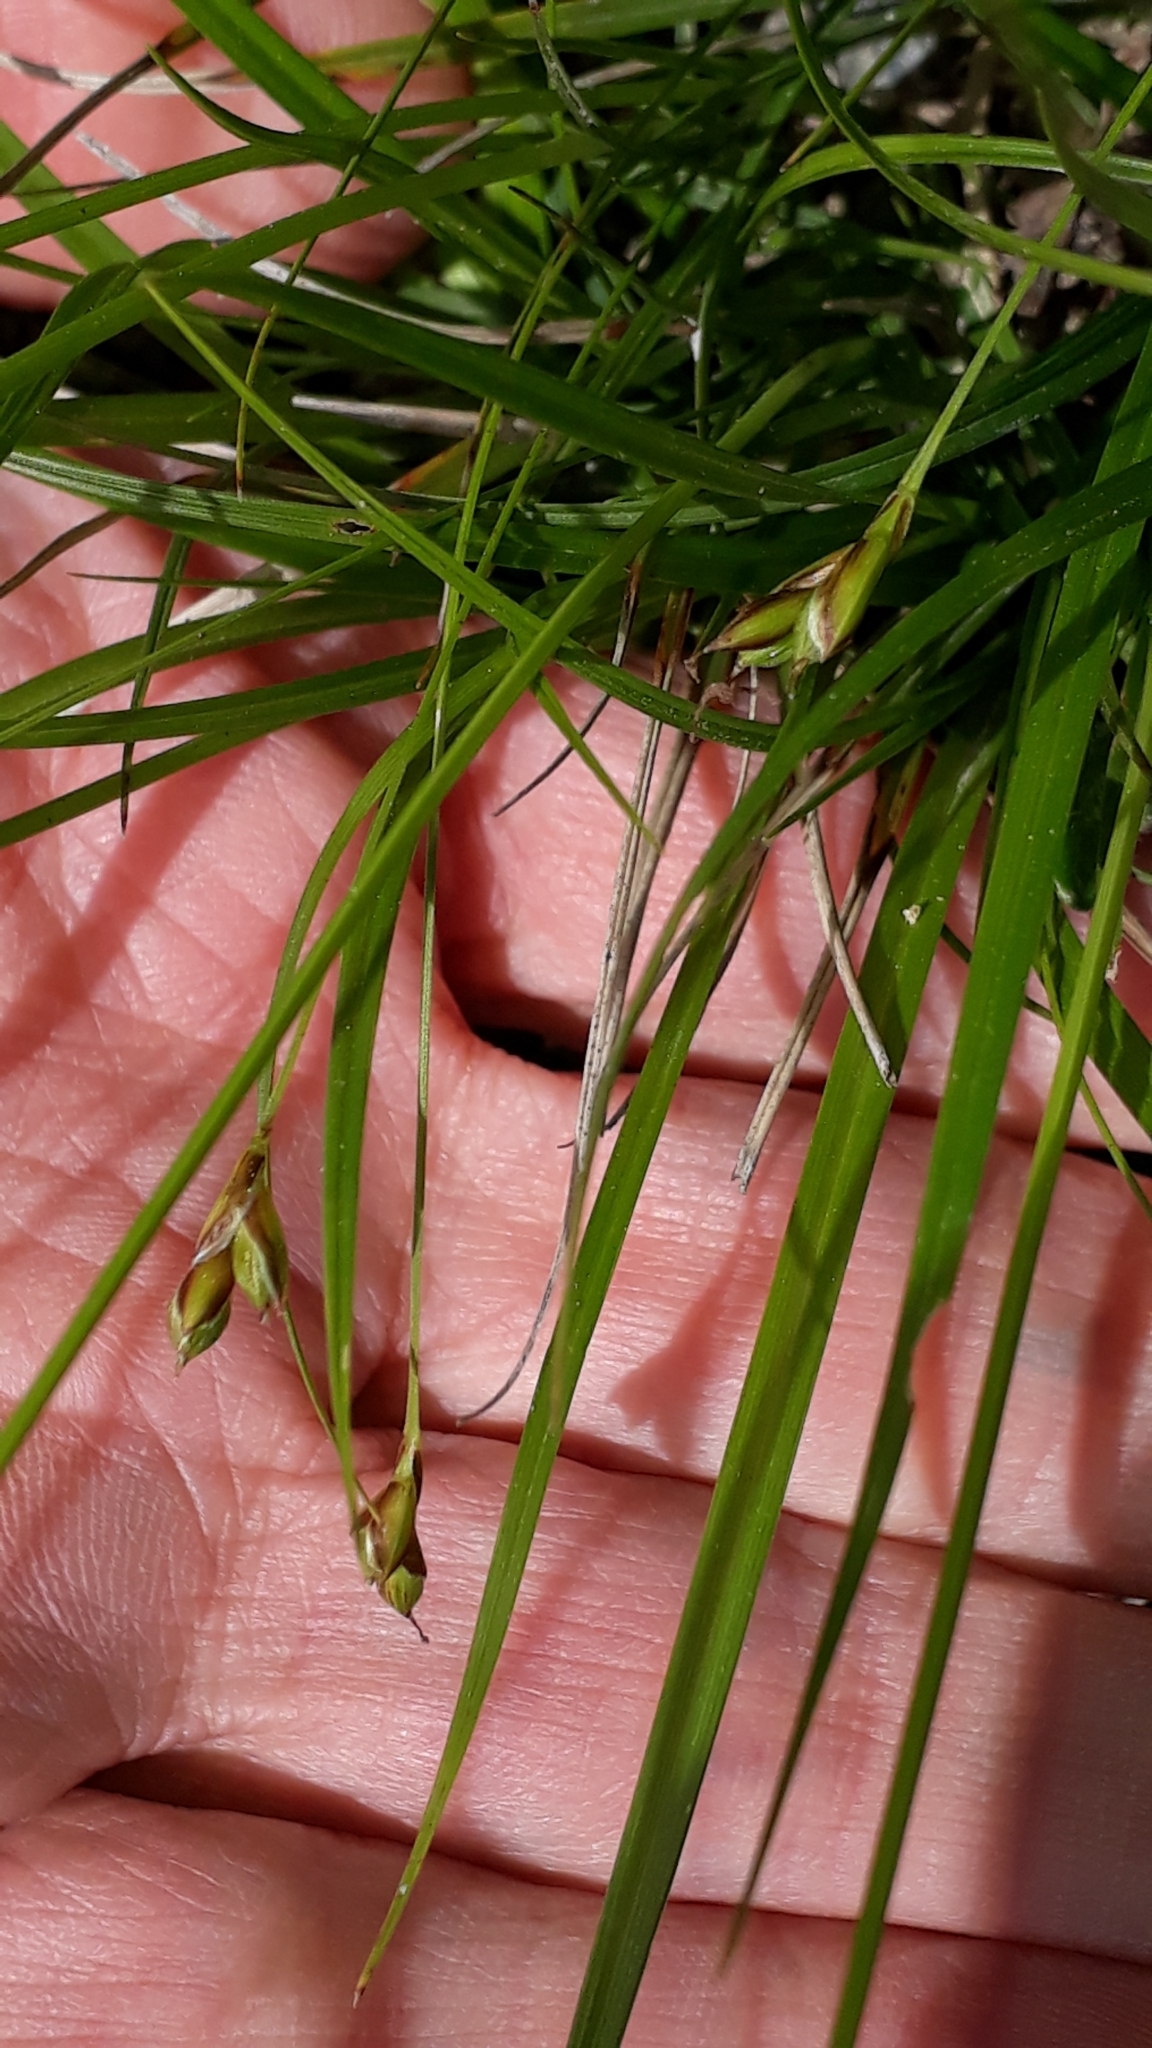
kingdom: Plantae
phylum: Tracheophyta
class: Liliopsida
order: Poales
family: Cyperaceae
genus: Carex
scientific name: Carex halleriana
